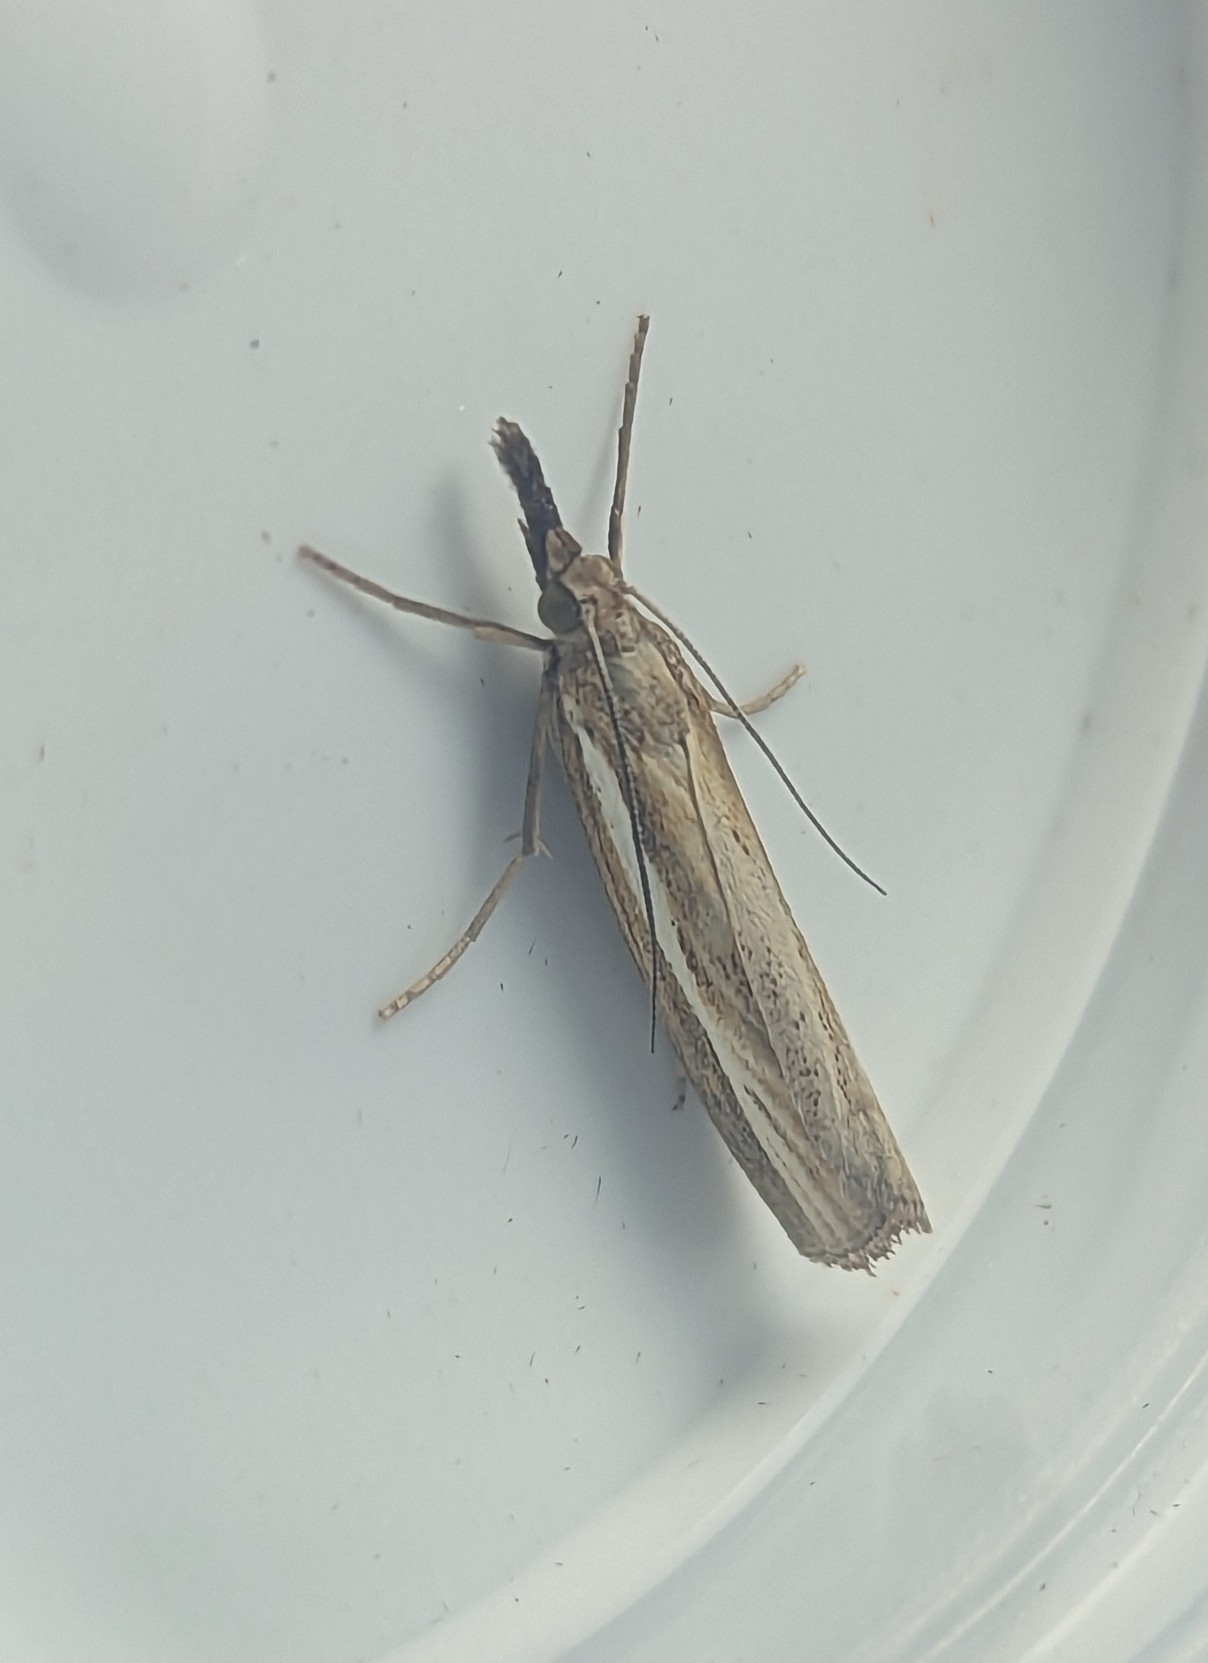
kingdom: Animalia
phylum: Arthropoda
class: Insecta
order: Lepidoptera
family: Crambidae
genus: Agriphila
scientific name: Agriphila tristellus
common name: Common grass-veneer
